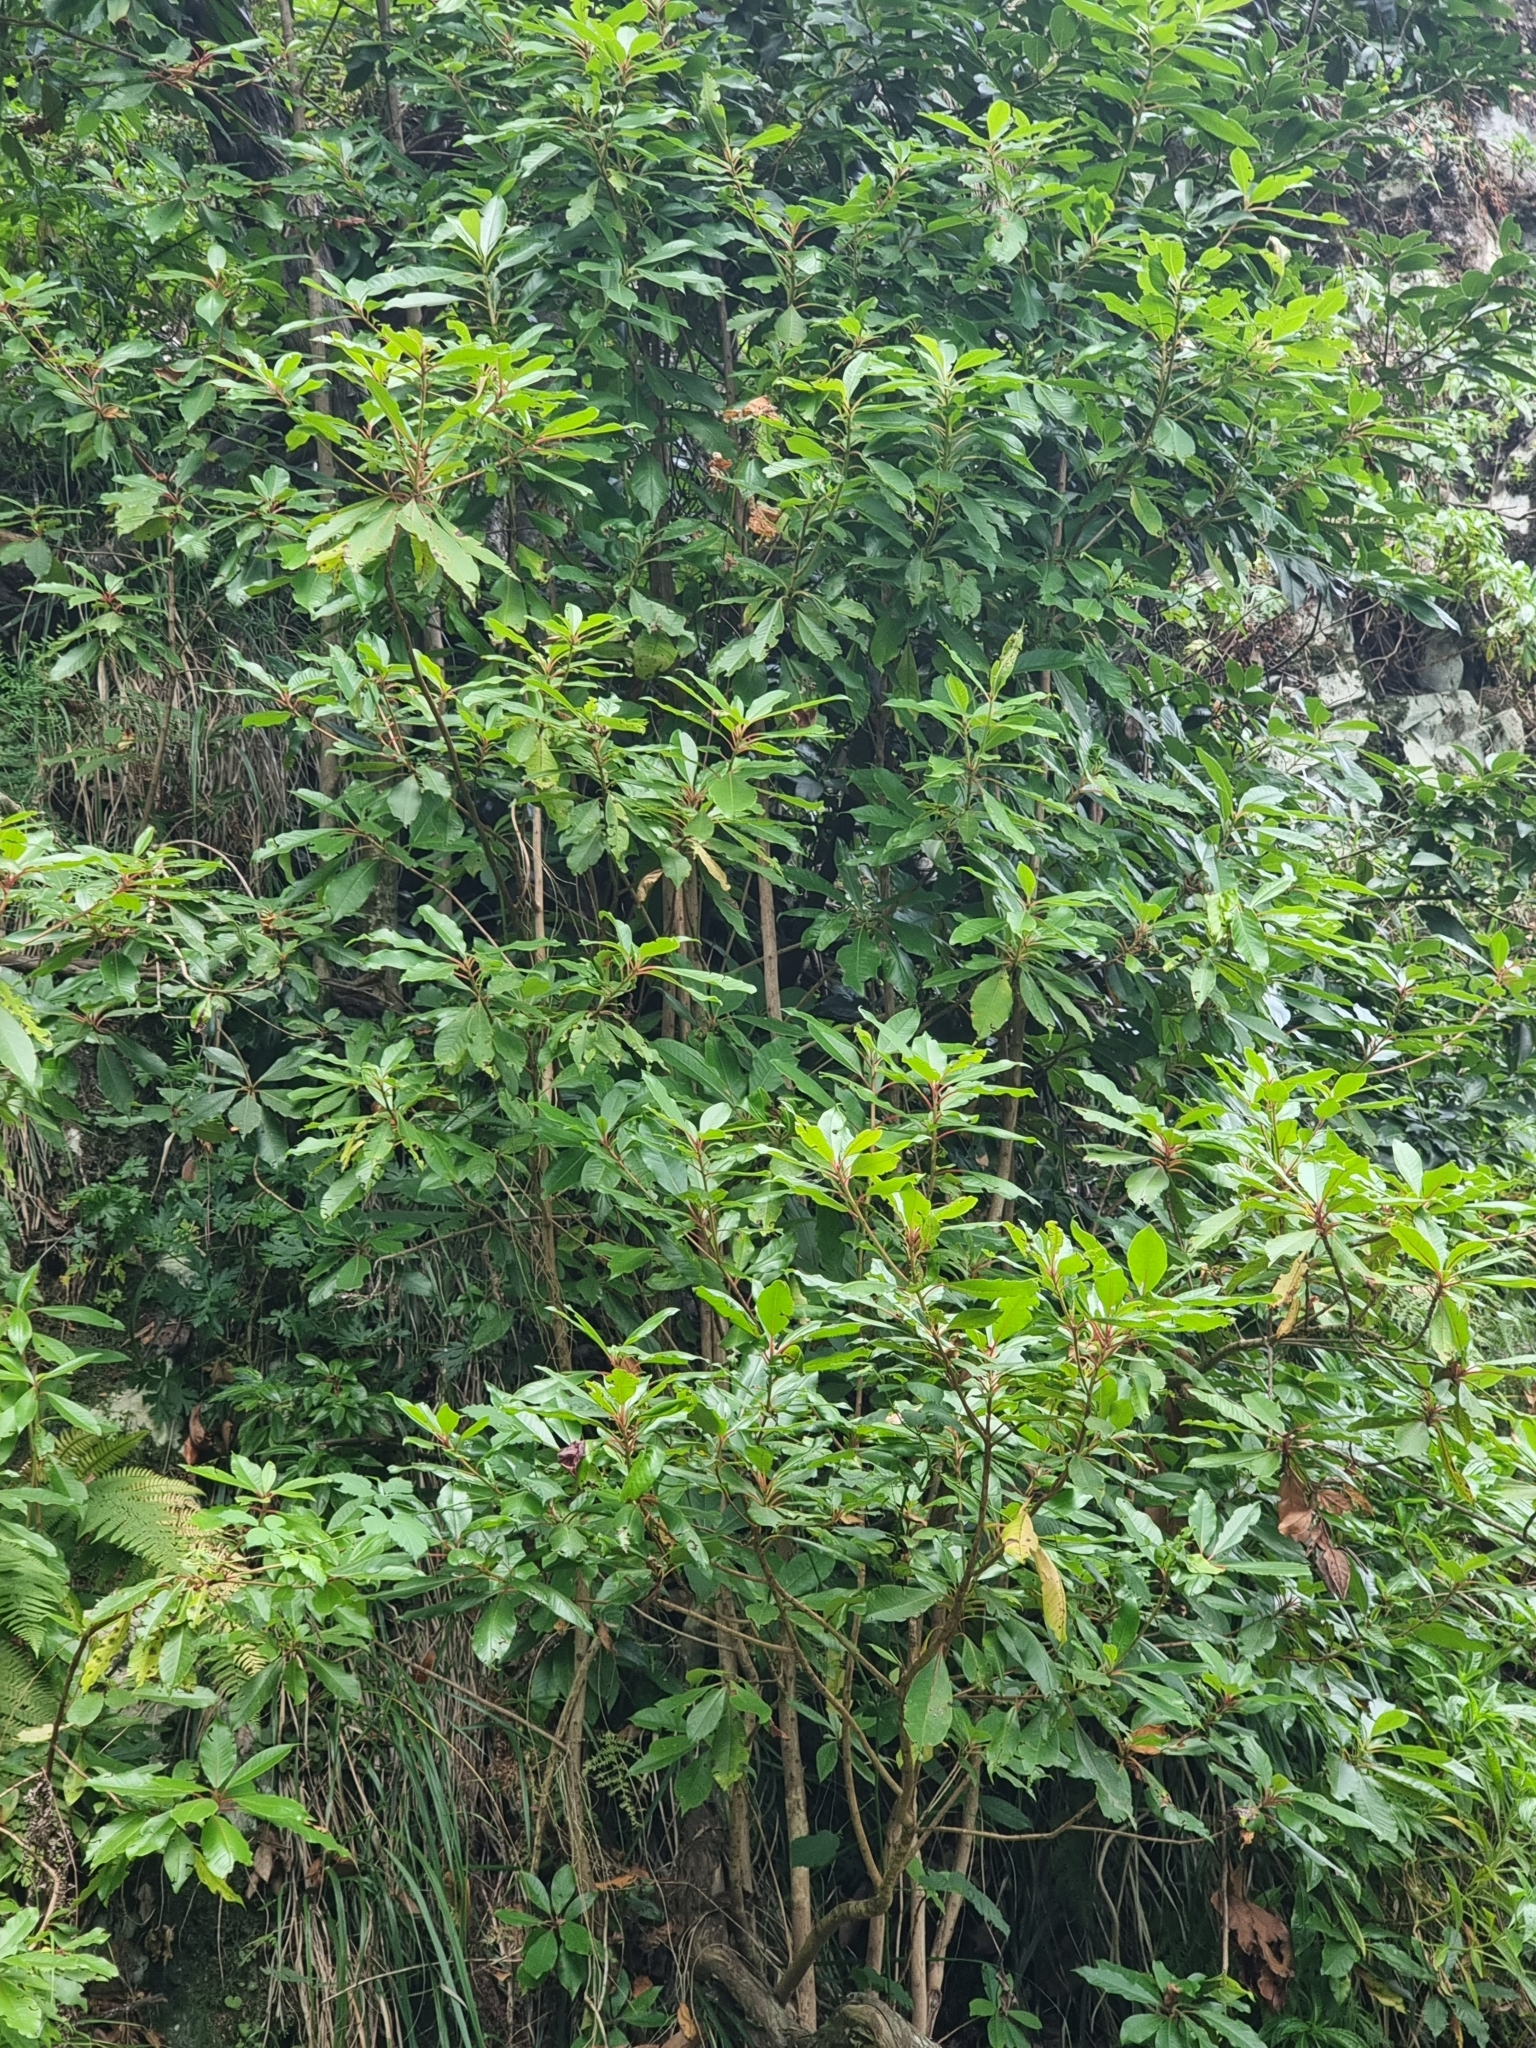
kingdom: Plantae
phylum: Tracheophyta
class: Magnoliopsida
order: Ericales
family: Clethraceae
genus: Clethra
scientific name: Clethra arborea
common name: Lily-of-the-valley-tree
